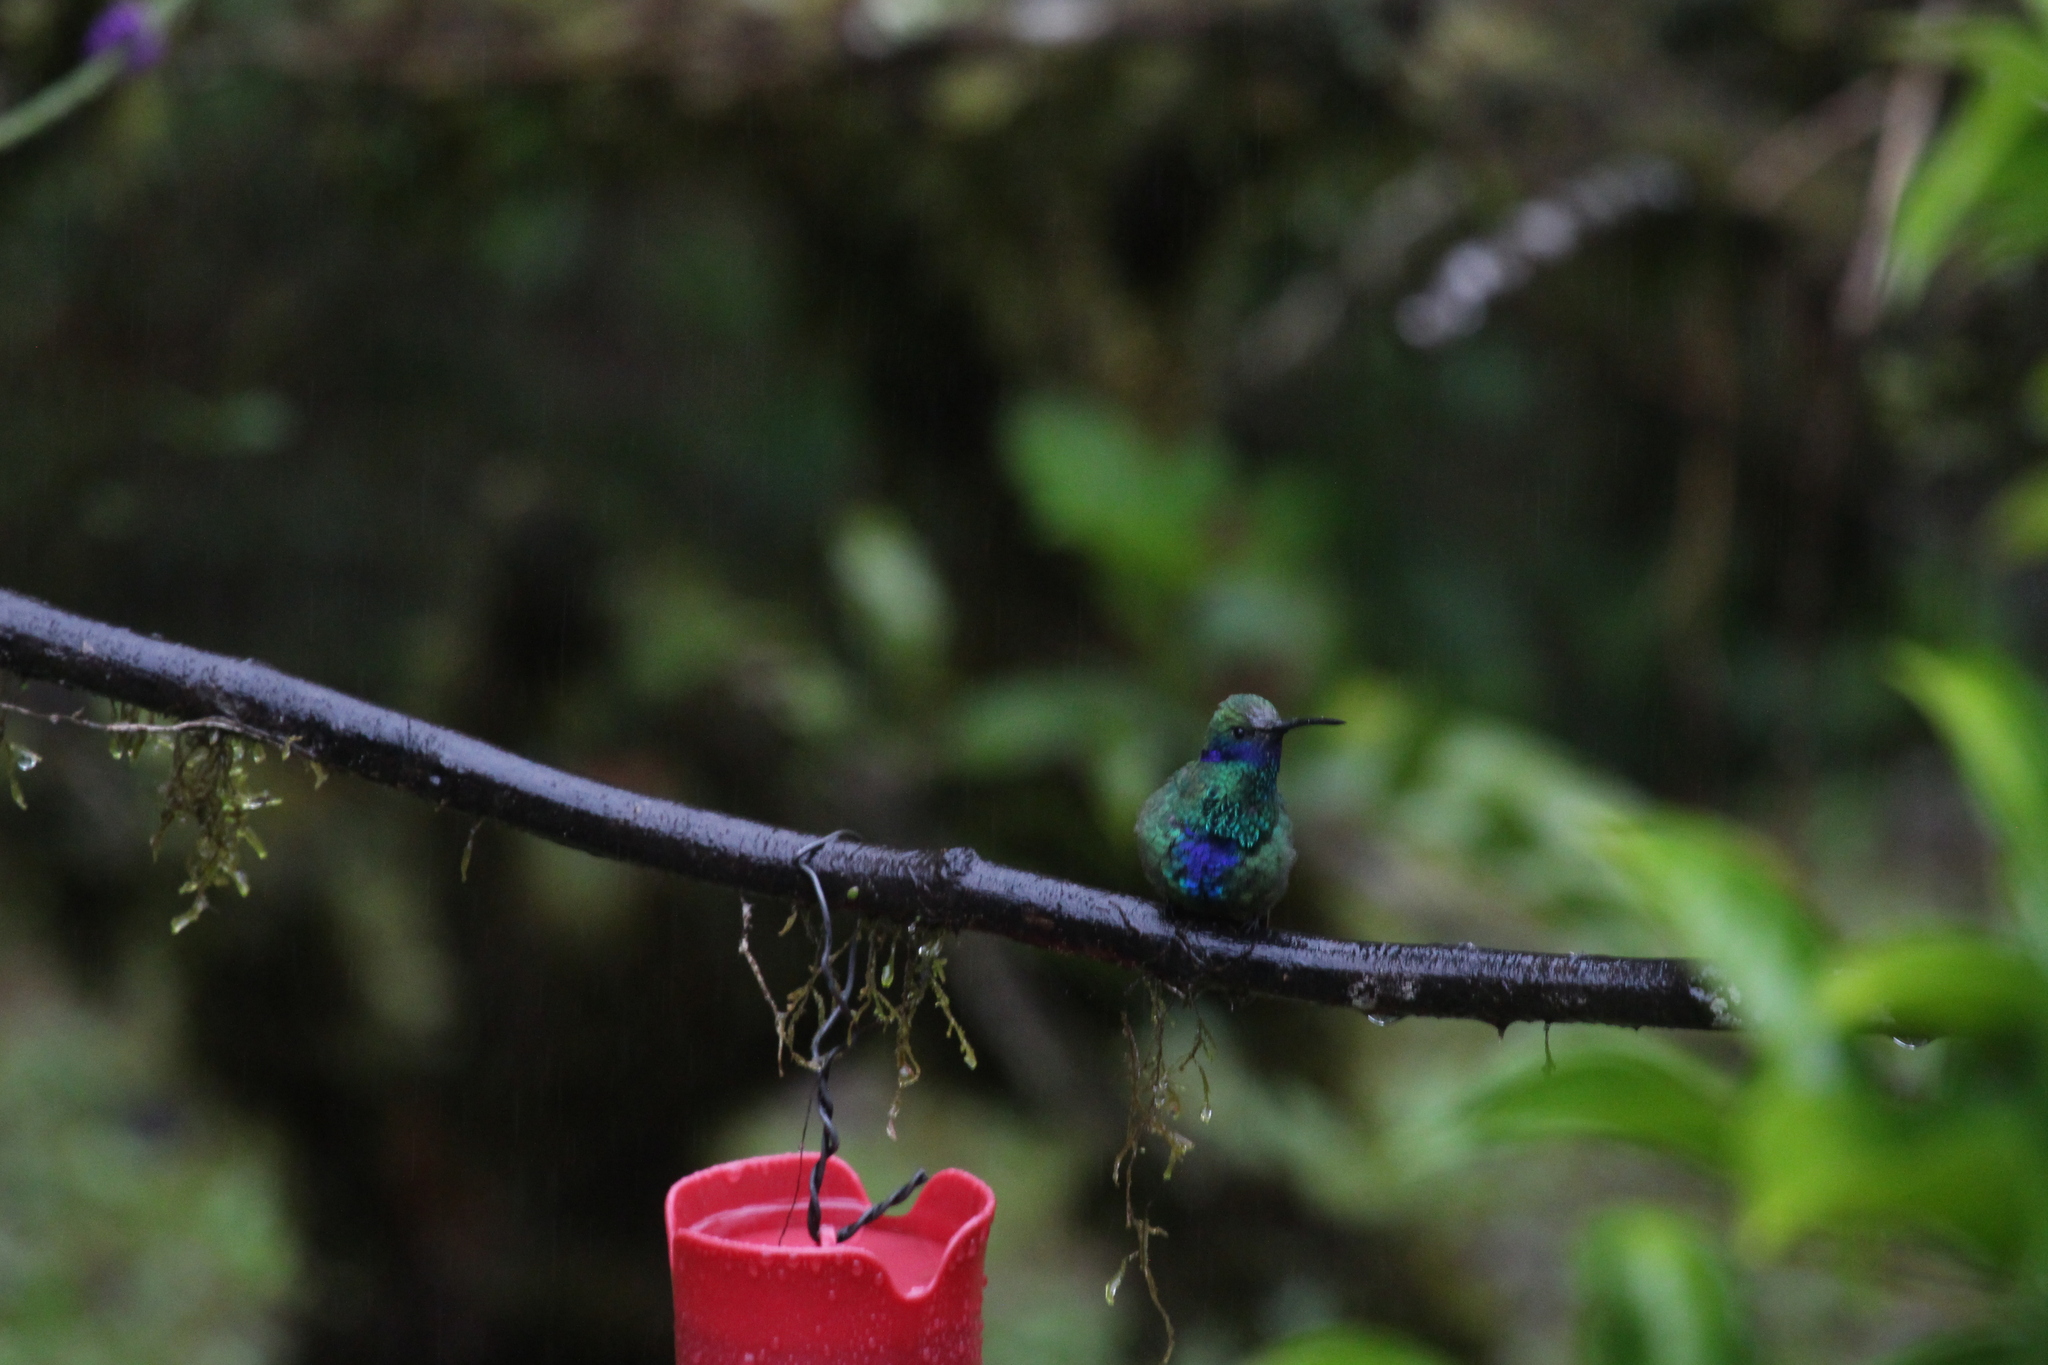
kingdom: Animalia
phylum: Chordata
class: Aves
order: Apodiformes
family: Trochilidae
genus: Colibri
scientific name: Colibri coruscans
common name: Sparkling violetear
